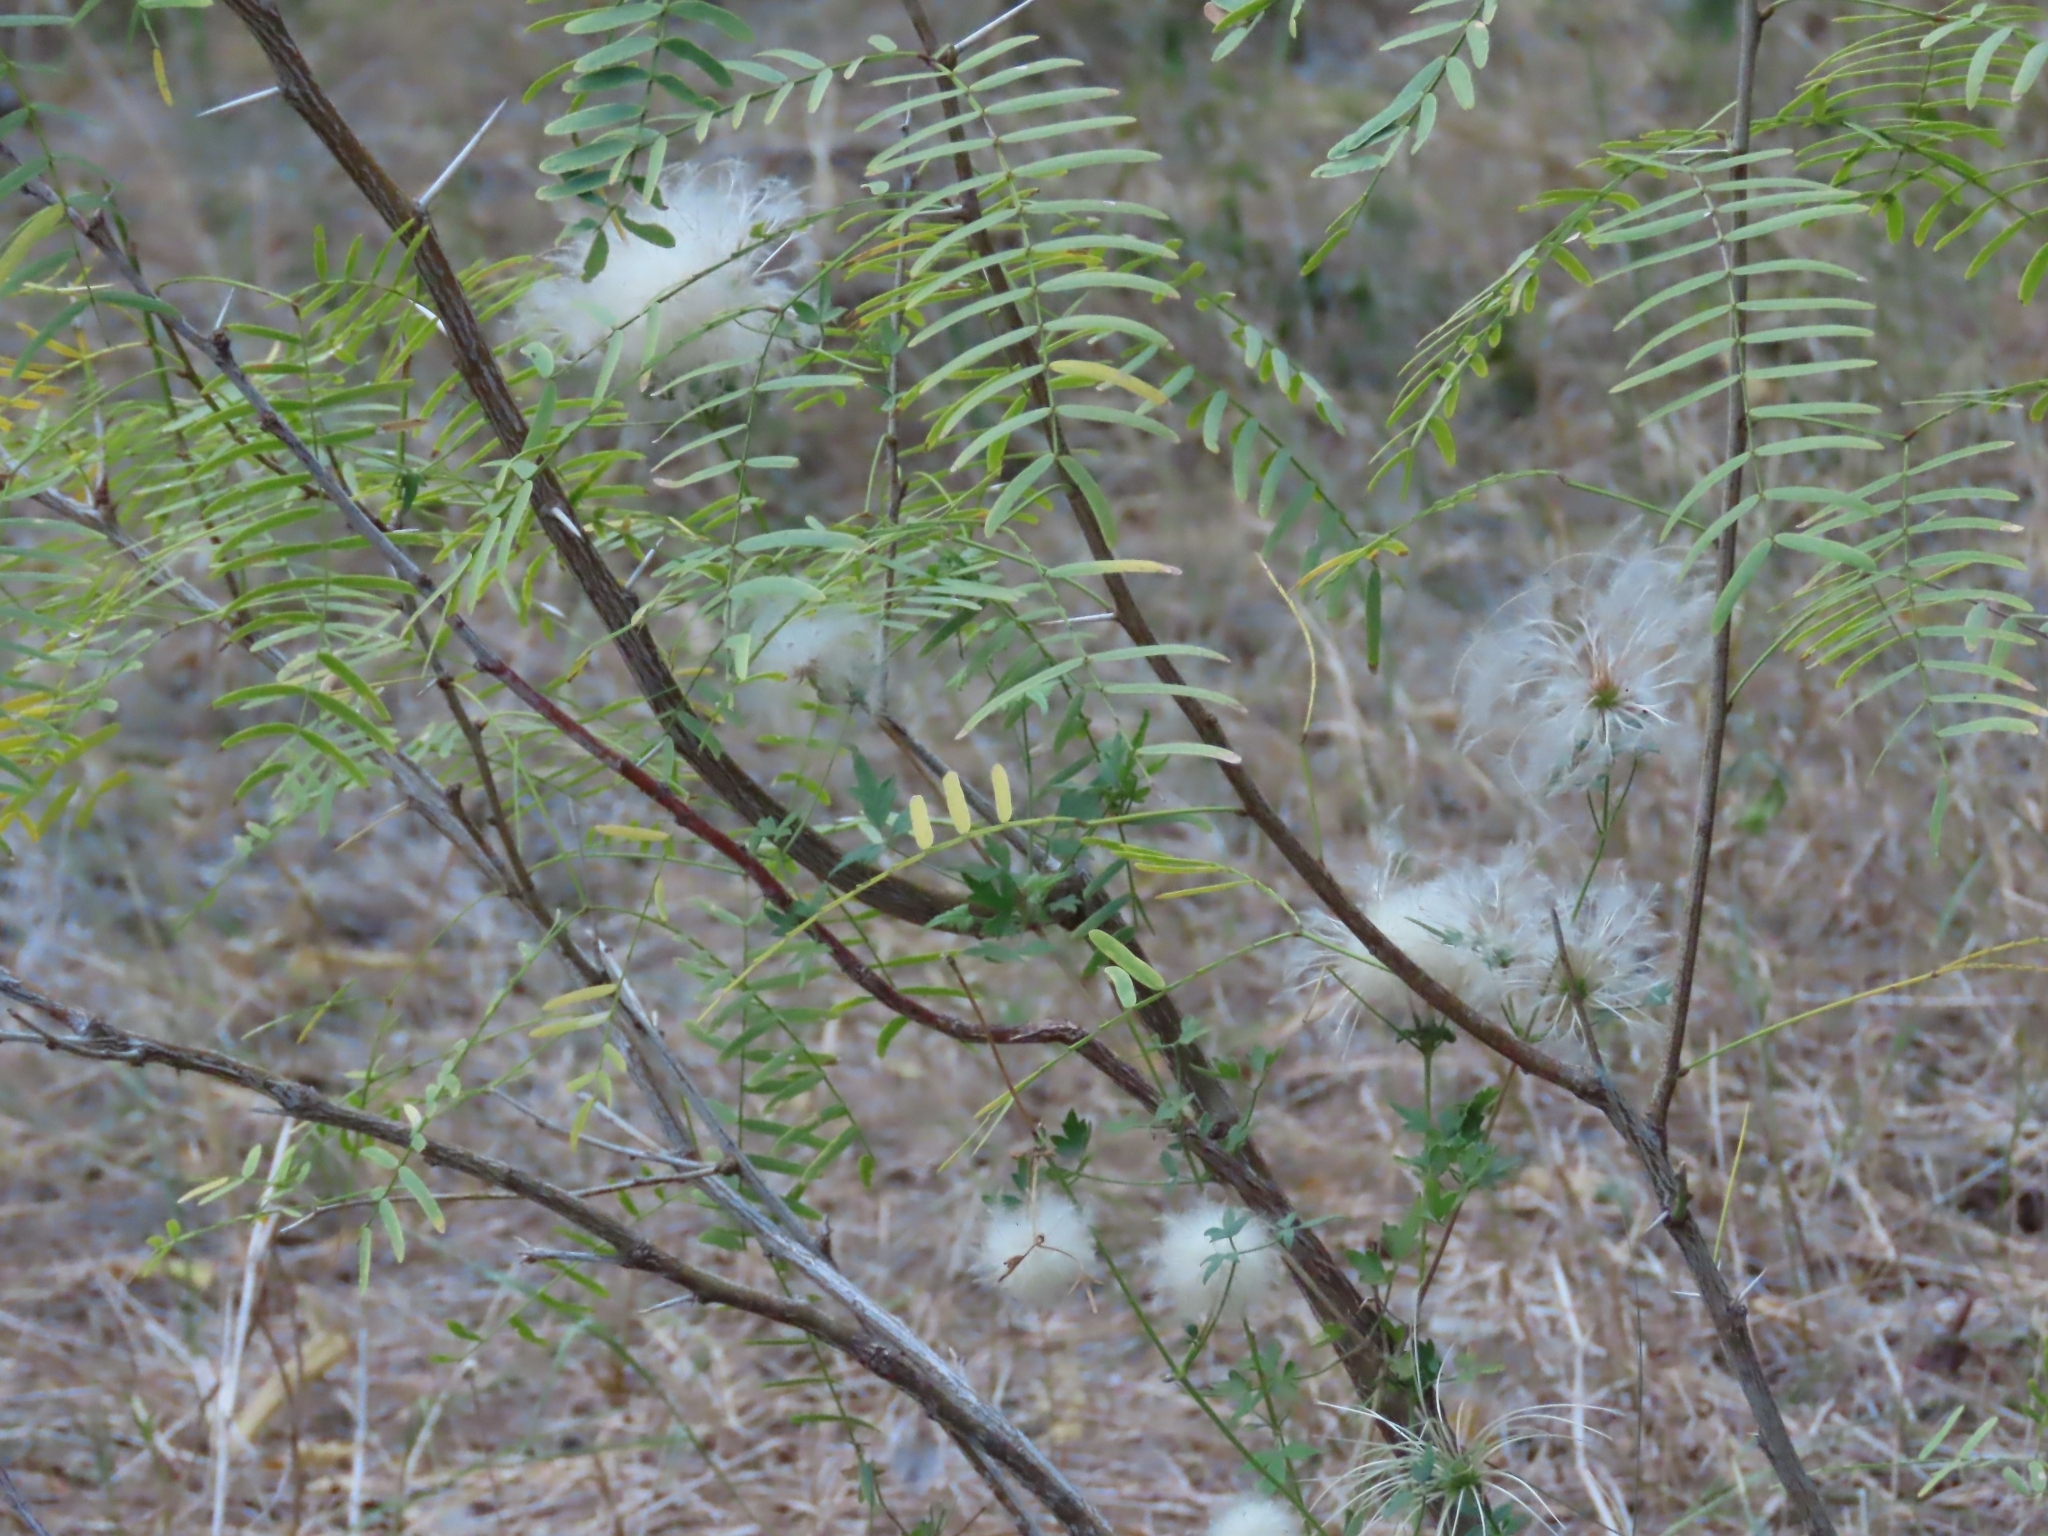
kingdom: Plantae
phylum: Tracheophyta
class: Magnoliopsida
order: Fabales
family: Fabaceae
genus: Prosopis
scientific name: Prosopis glandulosa
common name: Honey mesquite
